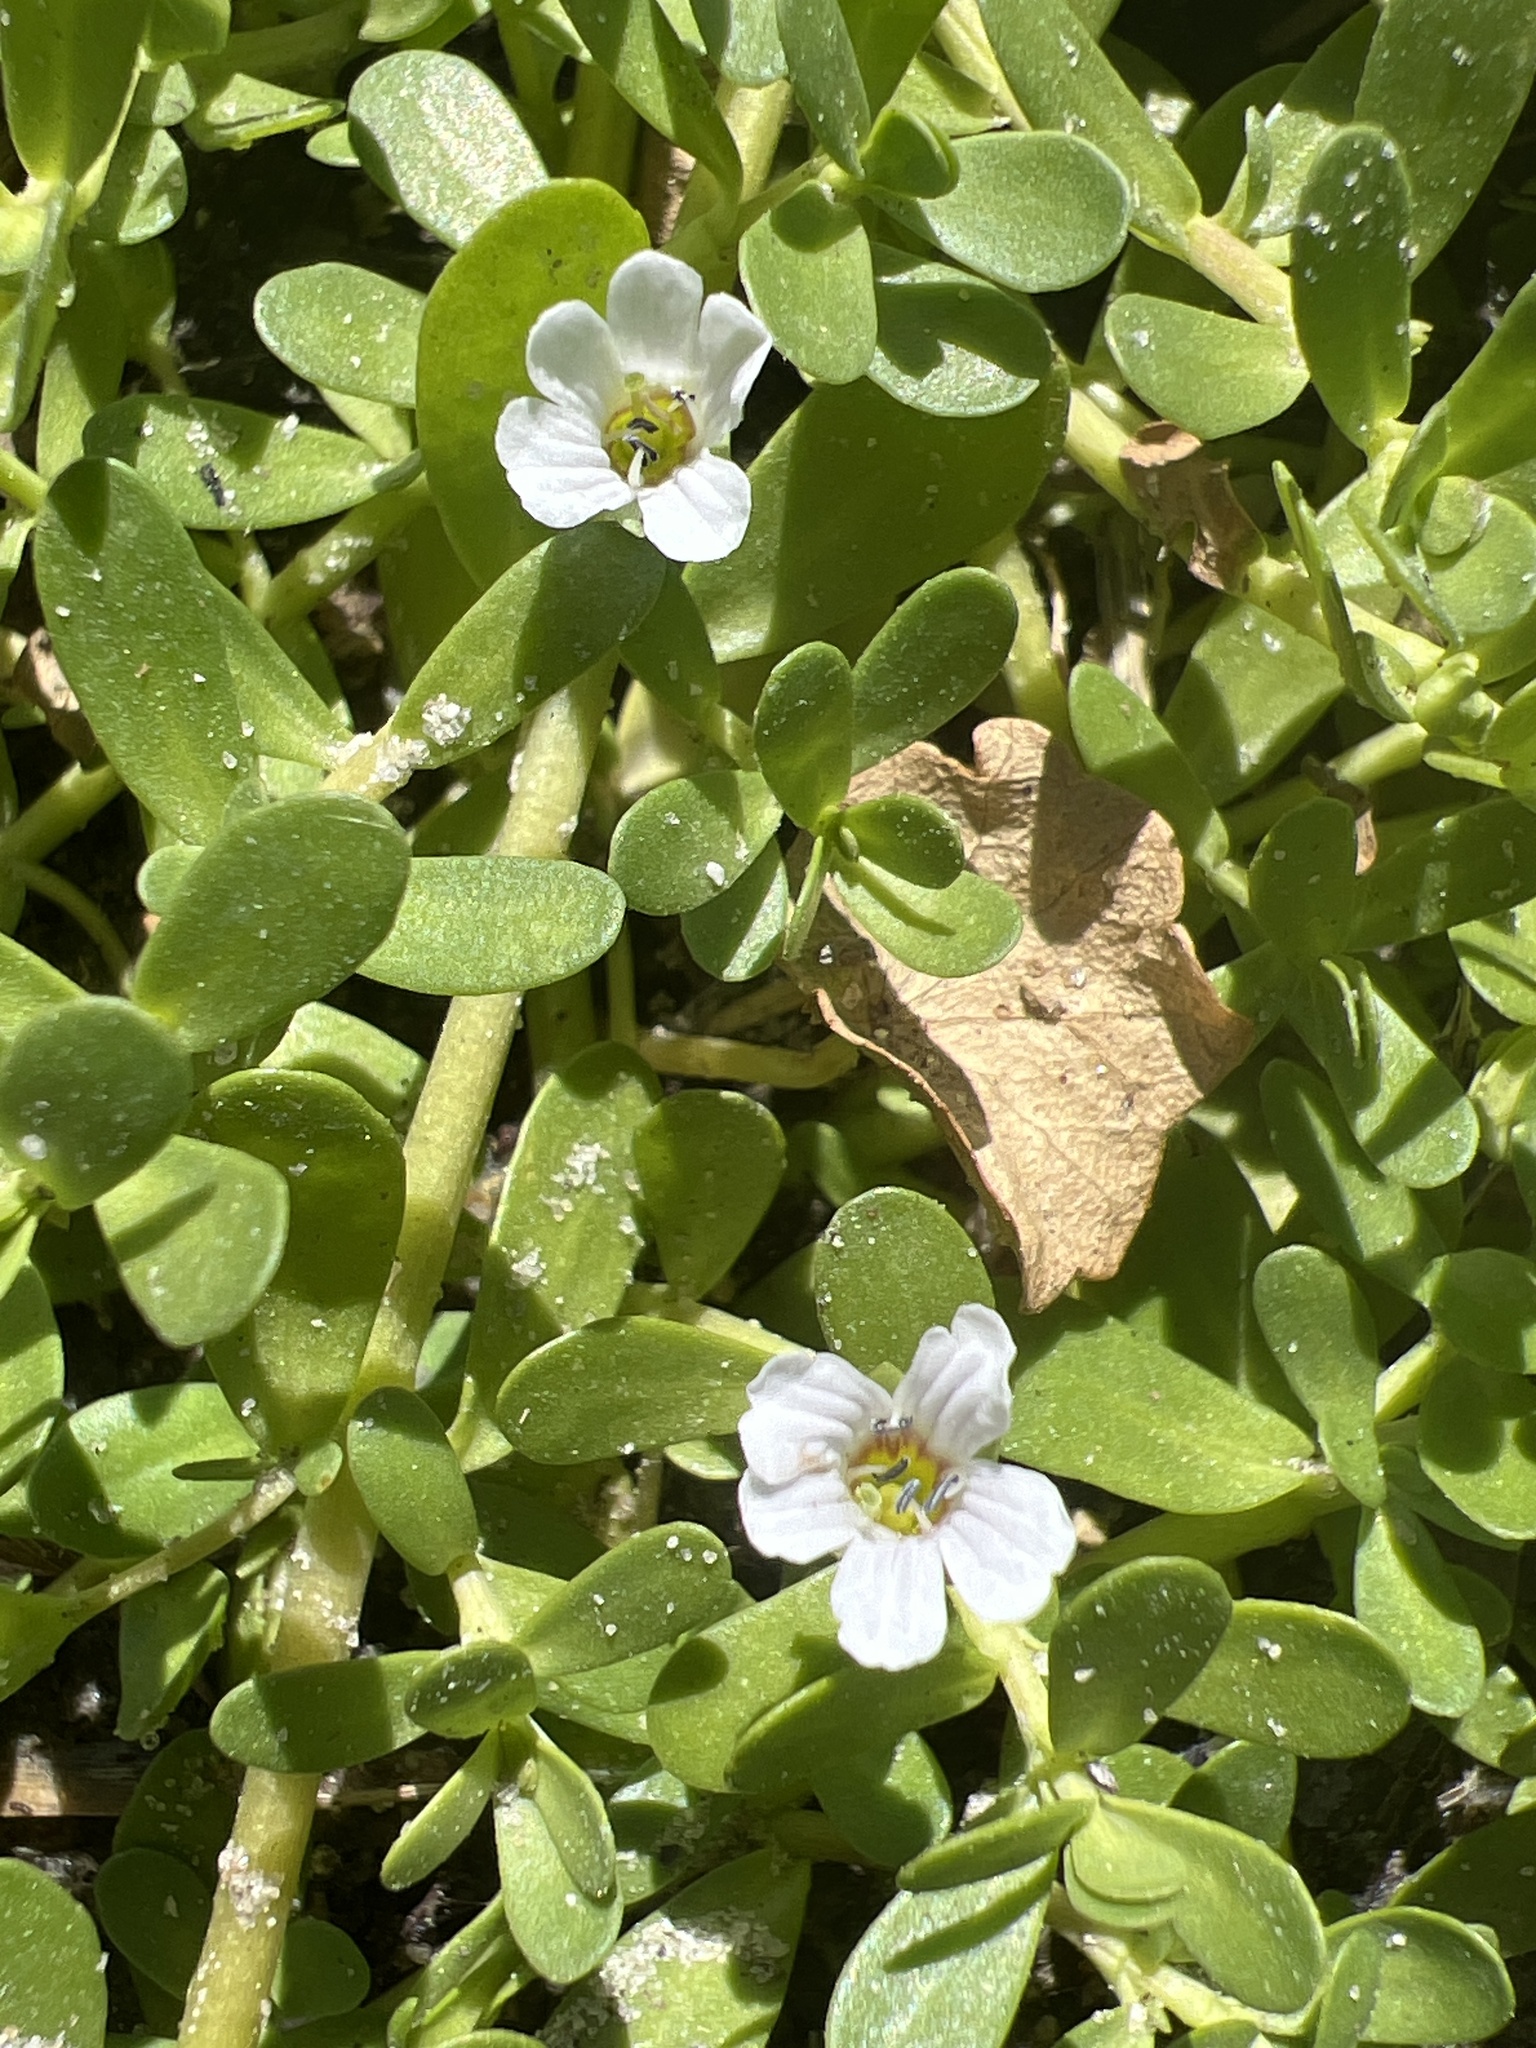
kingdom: Plantae
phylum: Tracheophyta
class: Magnoliopsida
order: Lamiales
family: Plantaginaceae
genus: Bacopa
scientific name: Bacopa monnieri
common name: Indian-pennywort
